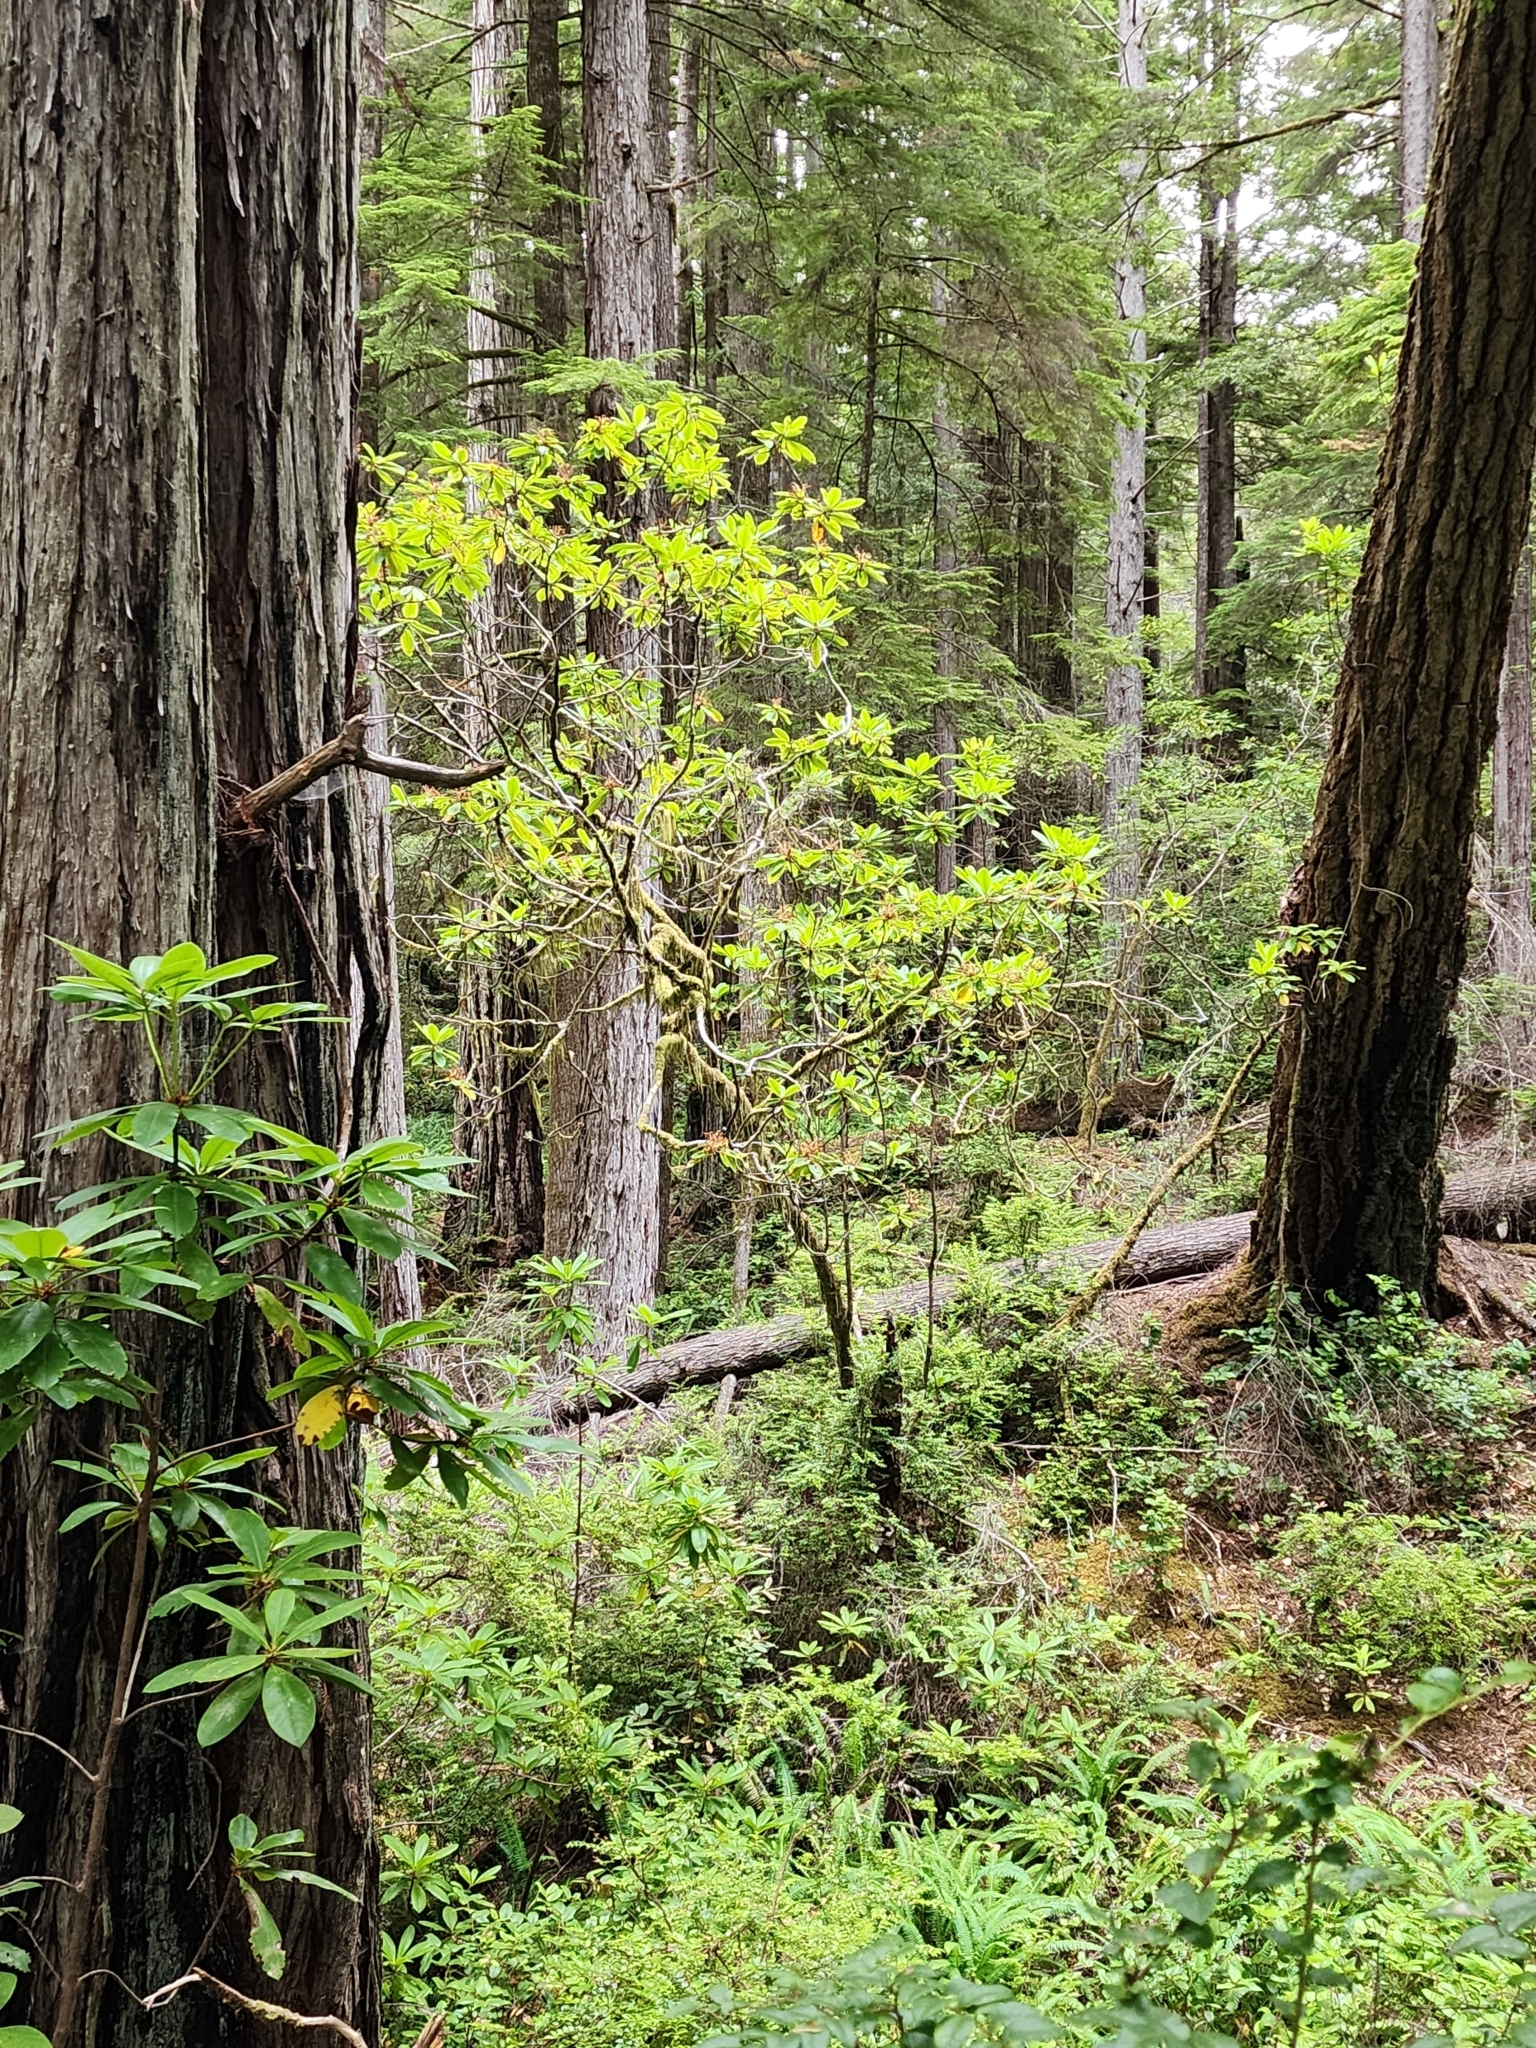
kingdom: Plantae
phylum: Tracheophyta
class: Magnoliopsida
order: Ericales
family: Ericaceae
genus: Rhododendron
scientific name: Rhododendron macrophyllum
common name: California rose bay
